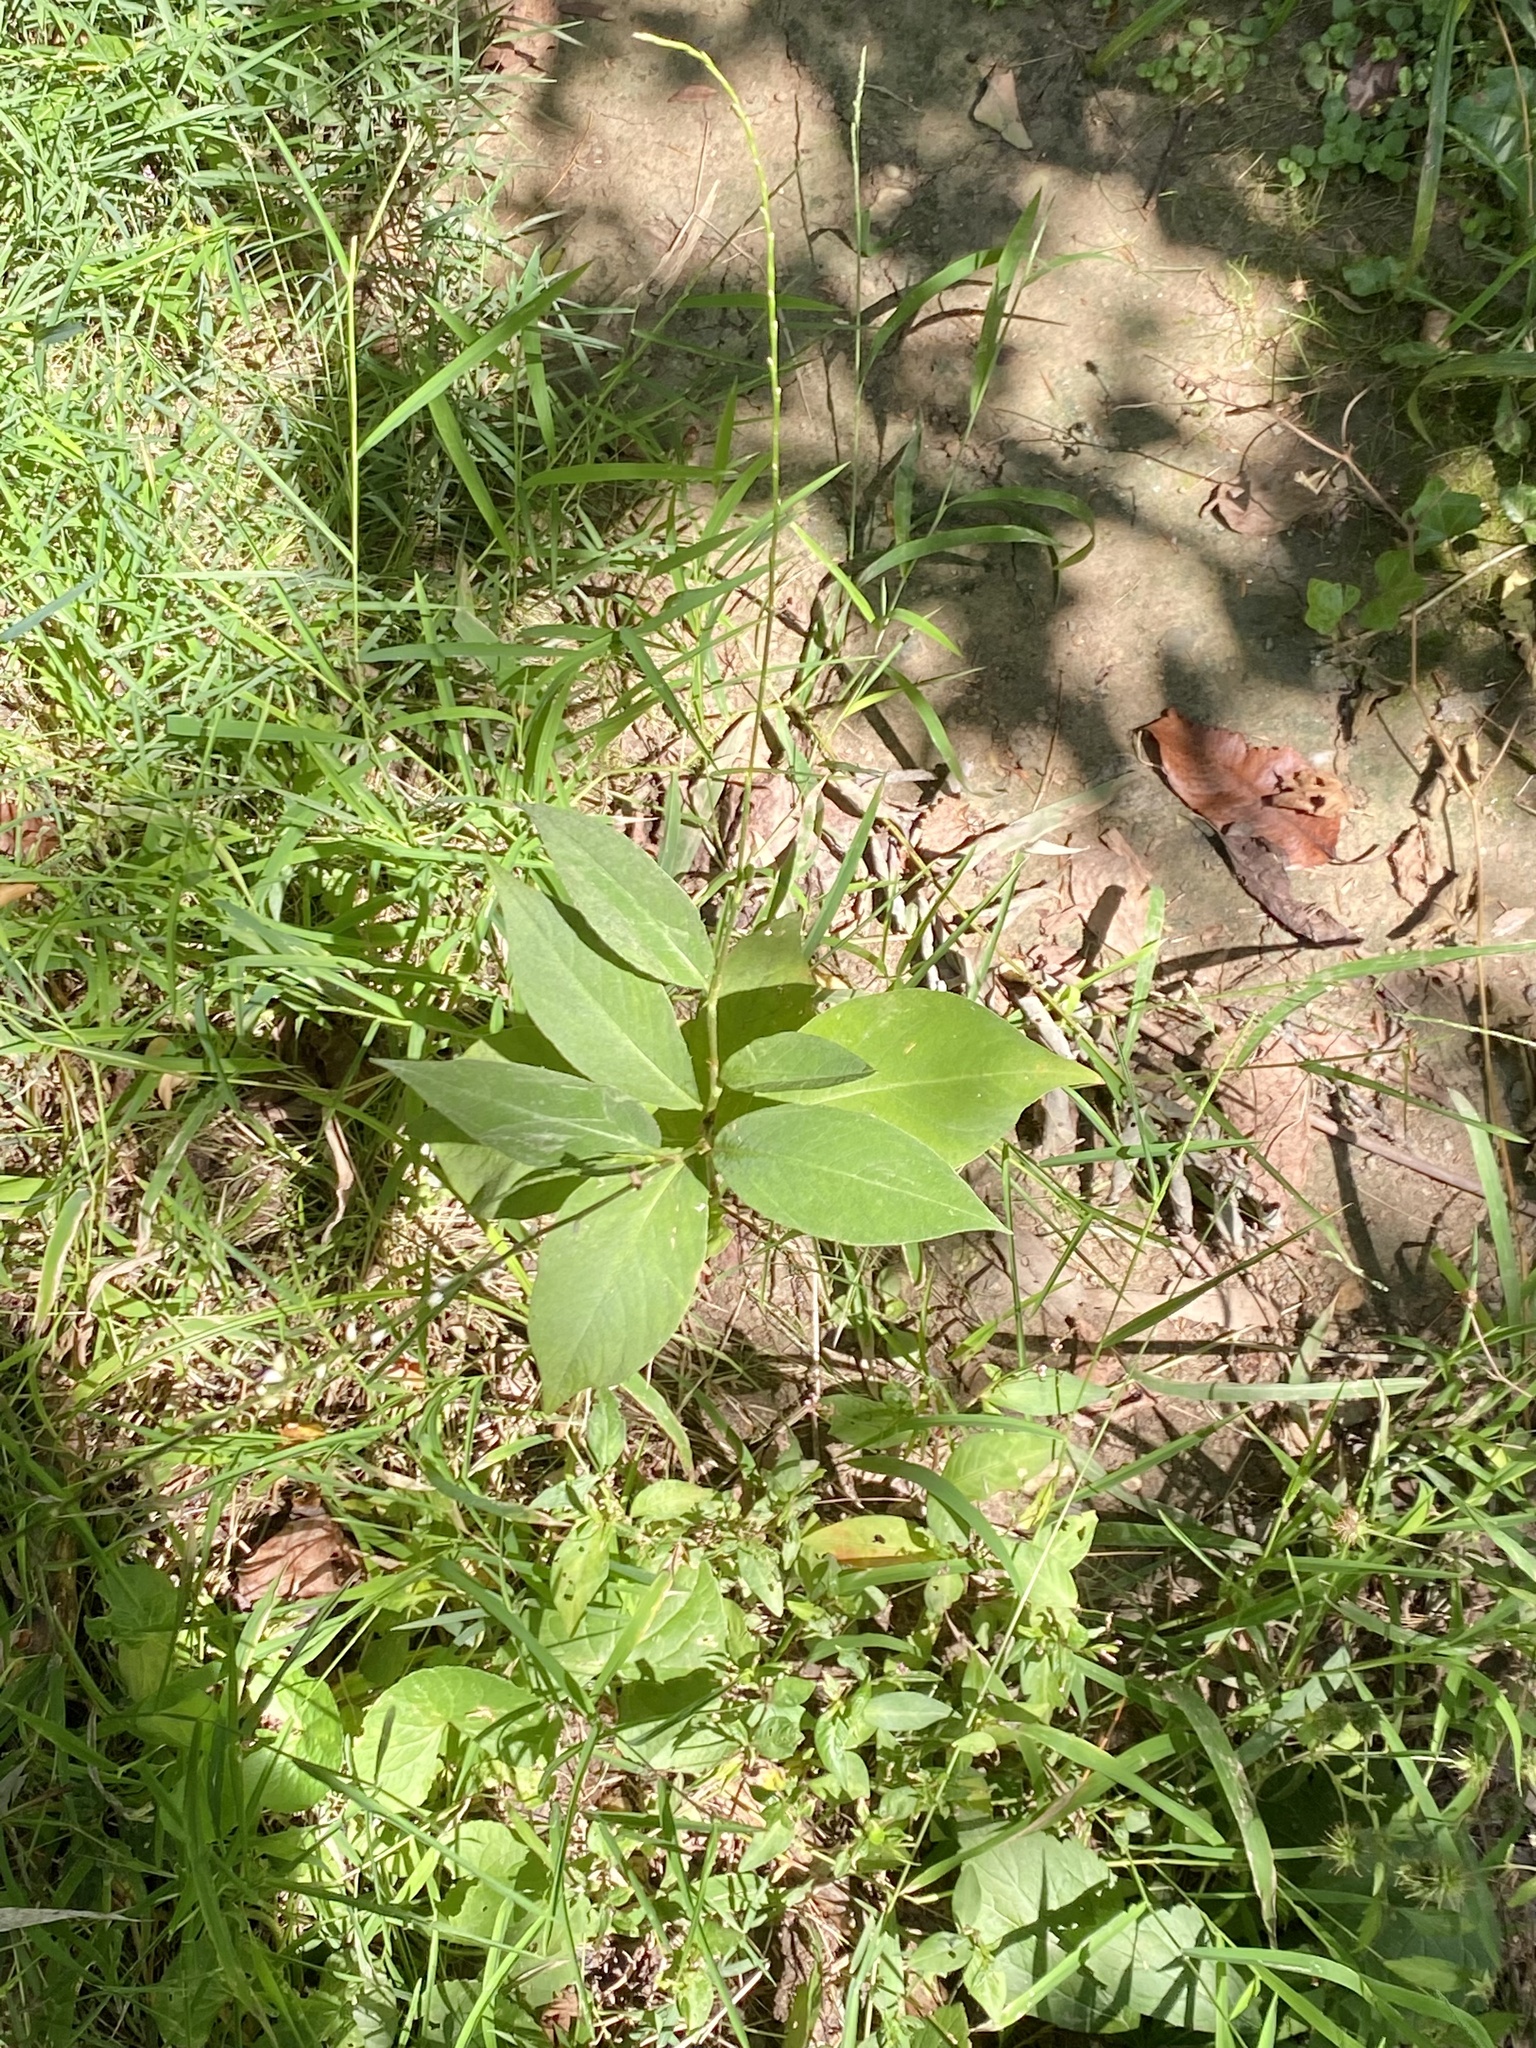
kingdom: Plantae
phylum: Tracheophyta
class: Magnoliopsida
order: Caryophyllales
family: Polygonaceae
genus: Persicaria
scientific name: Persicaria virginiana
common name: Jumpseed
